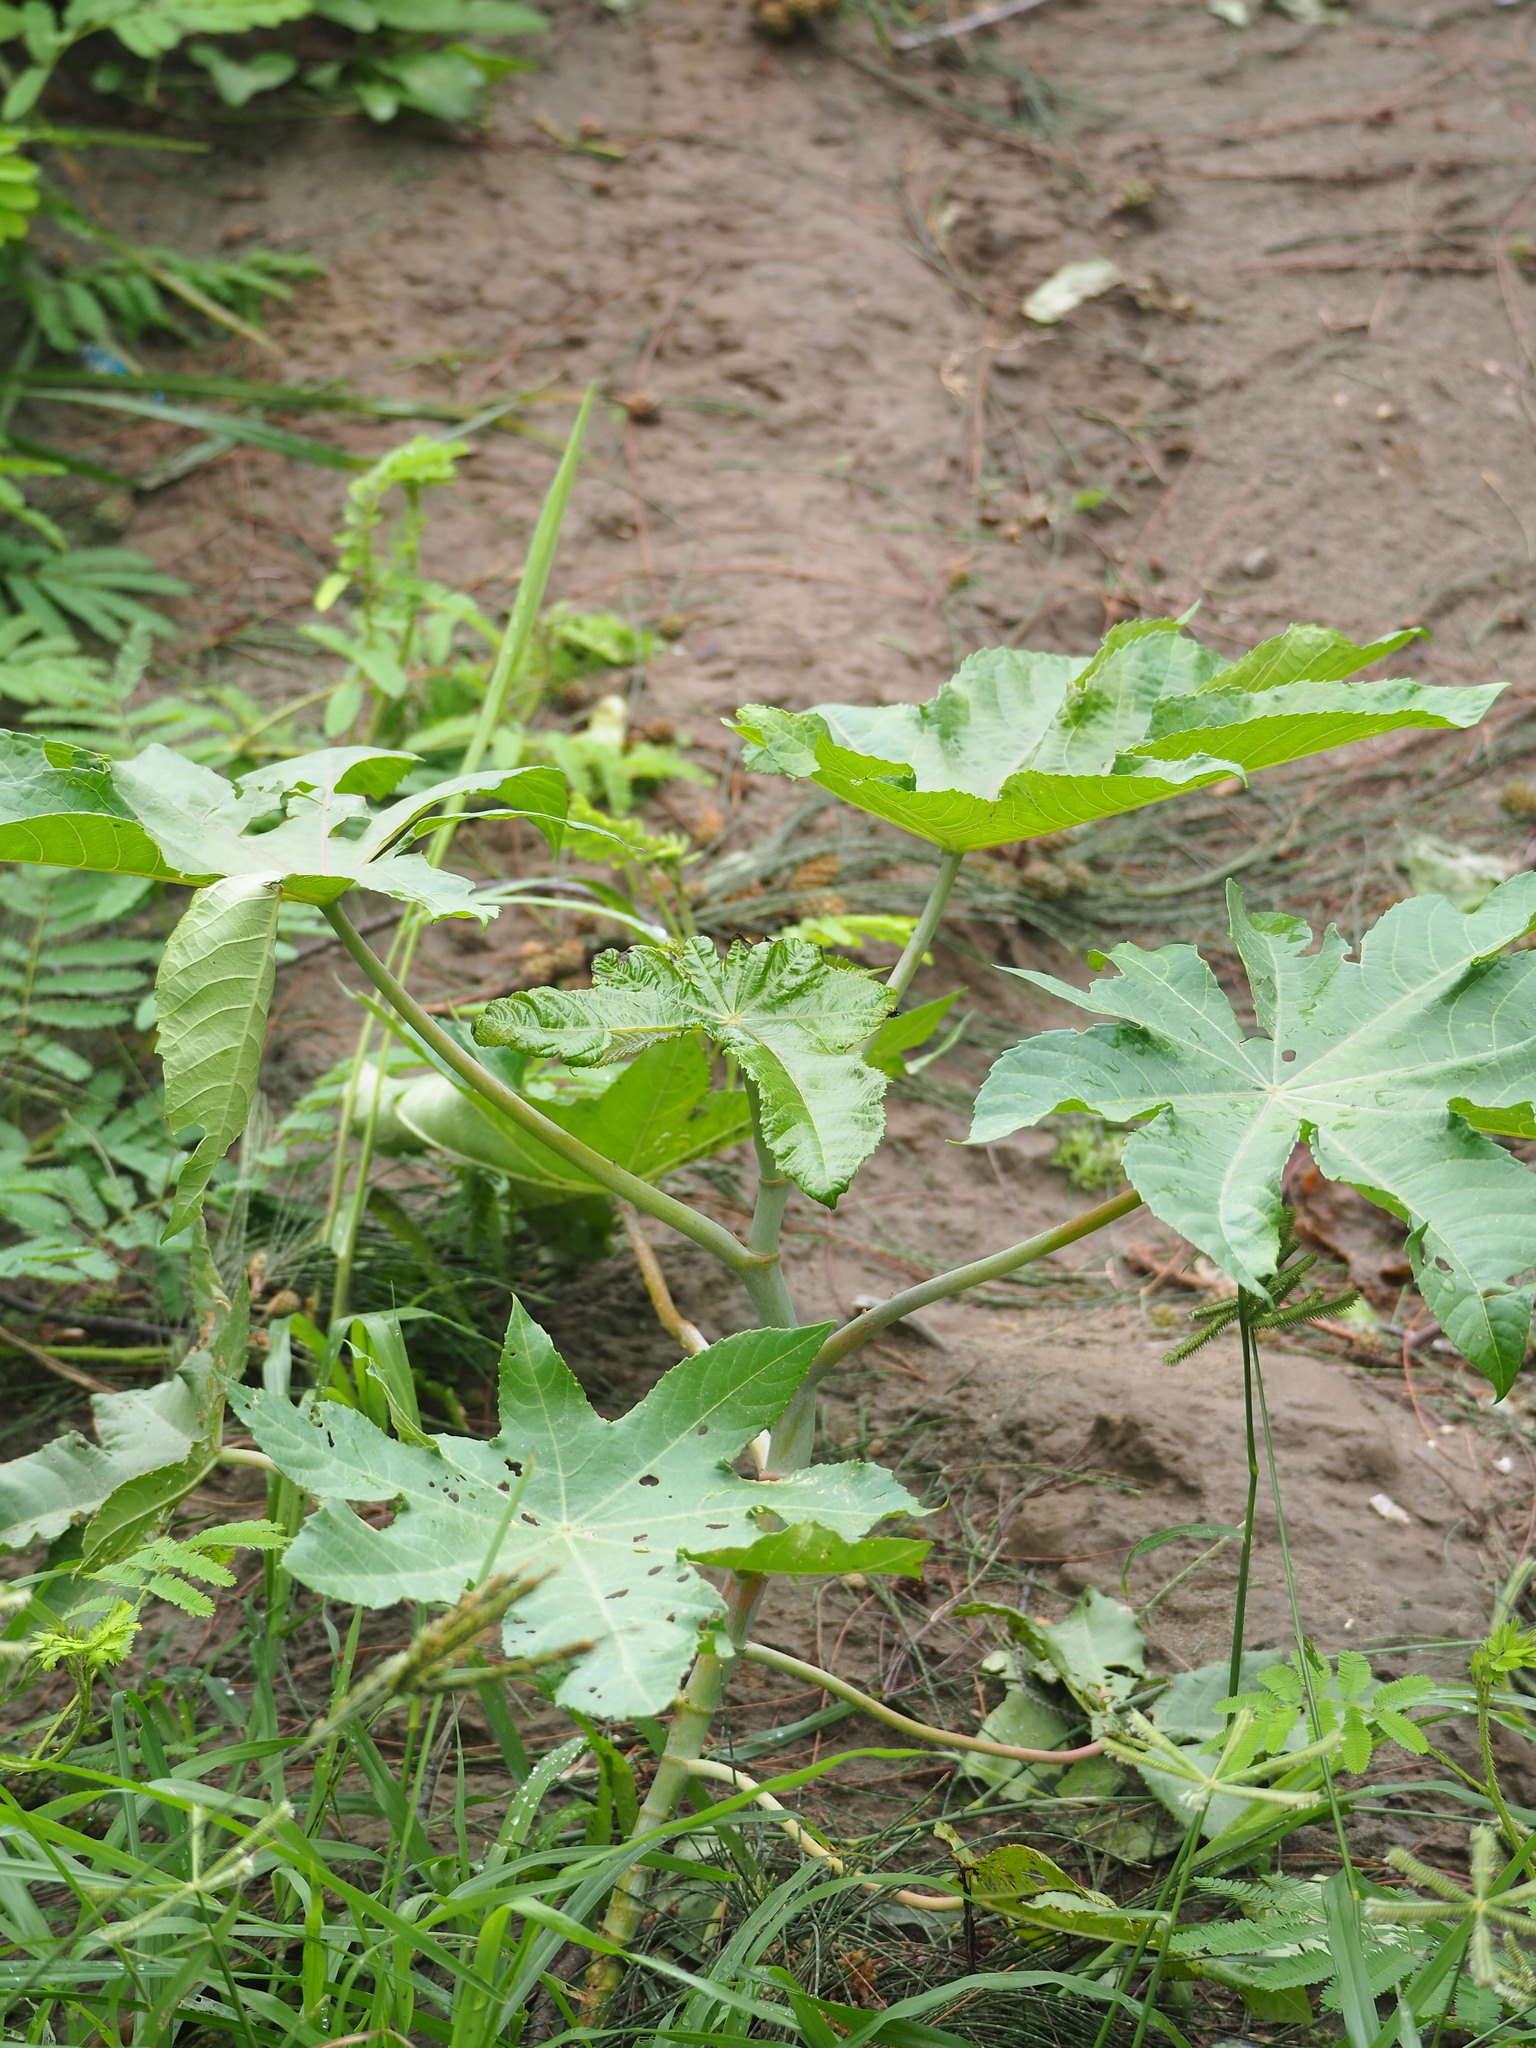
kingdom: Plantae
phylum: Tracheophyta
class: Magnoliopsida
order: Malpighiales
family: Euphorbiaceae
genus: Ricinus
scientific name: Ricinus communis
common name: Castor-oil-plant
